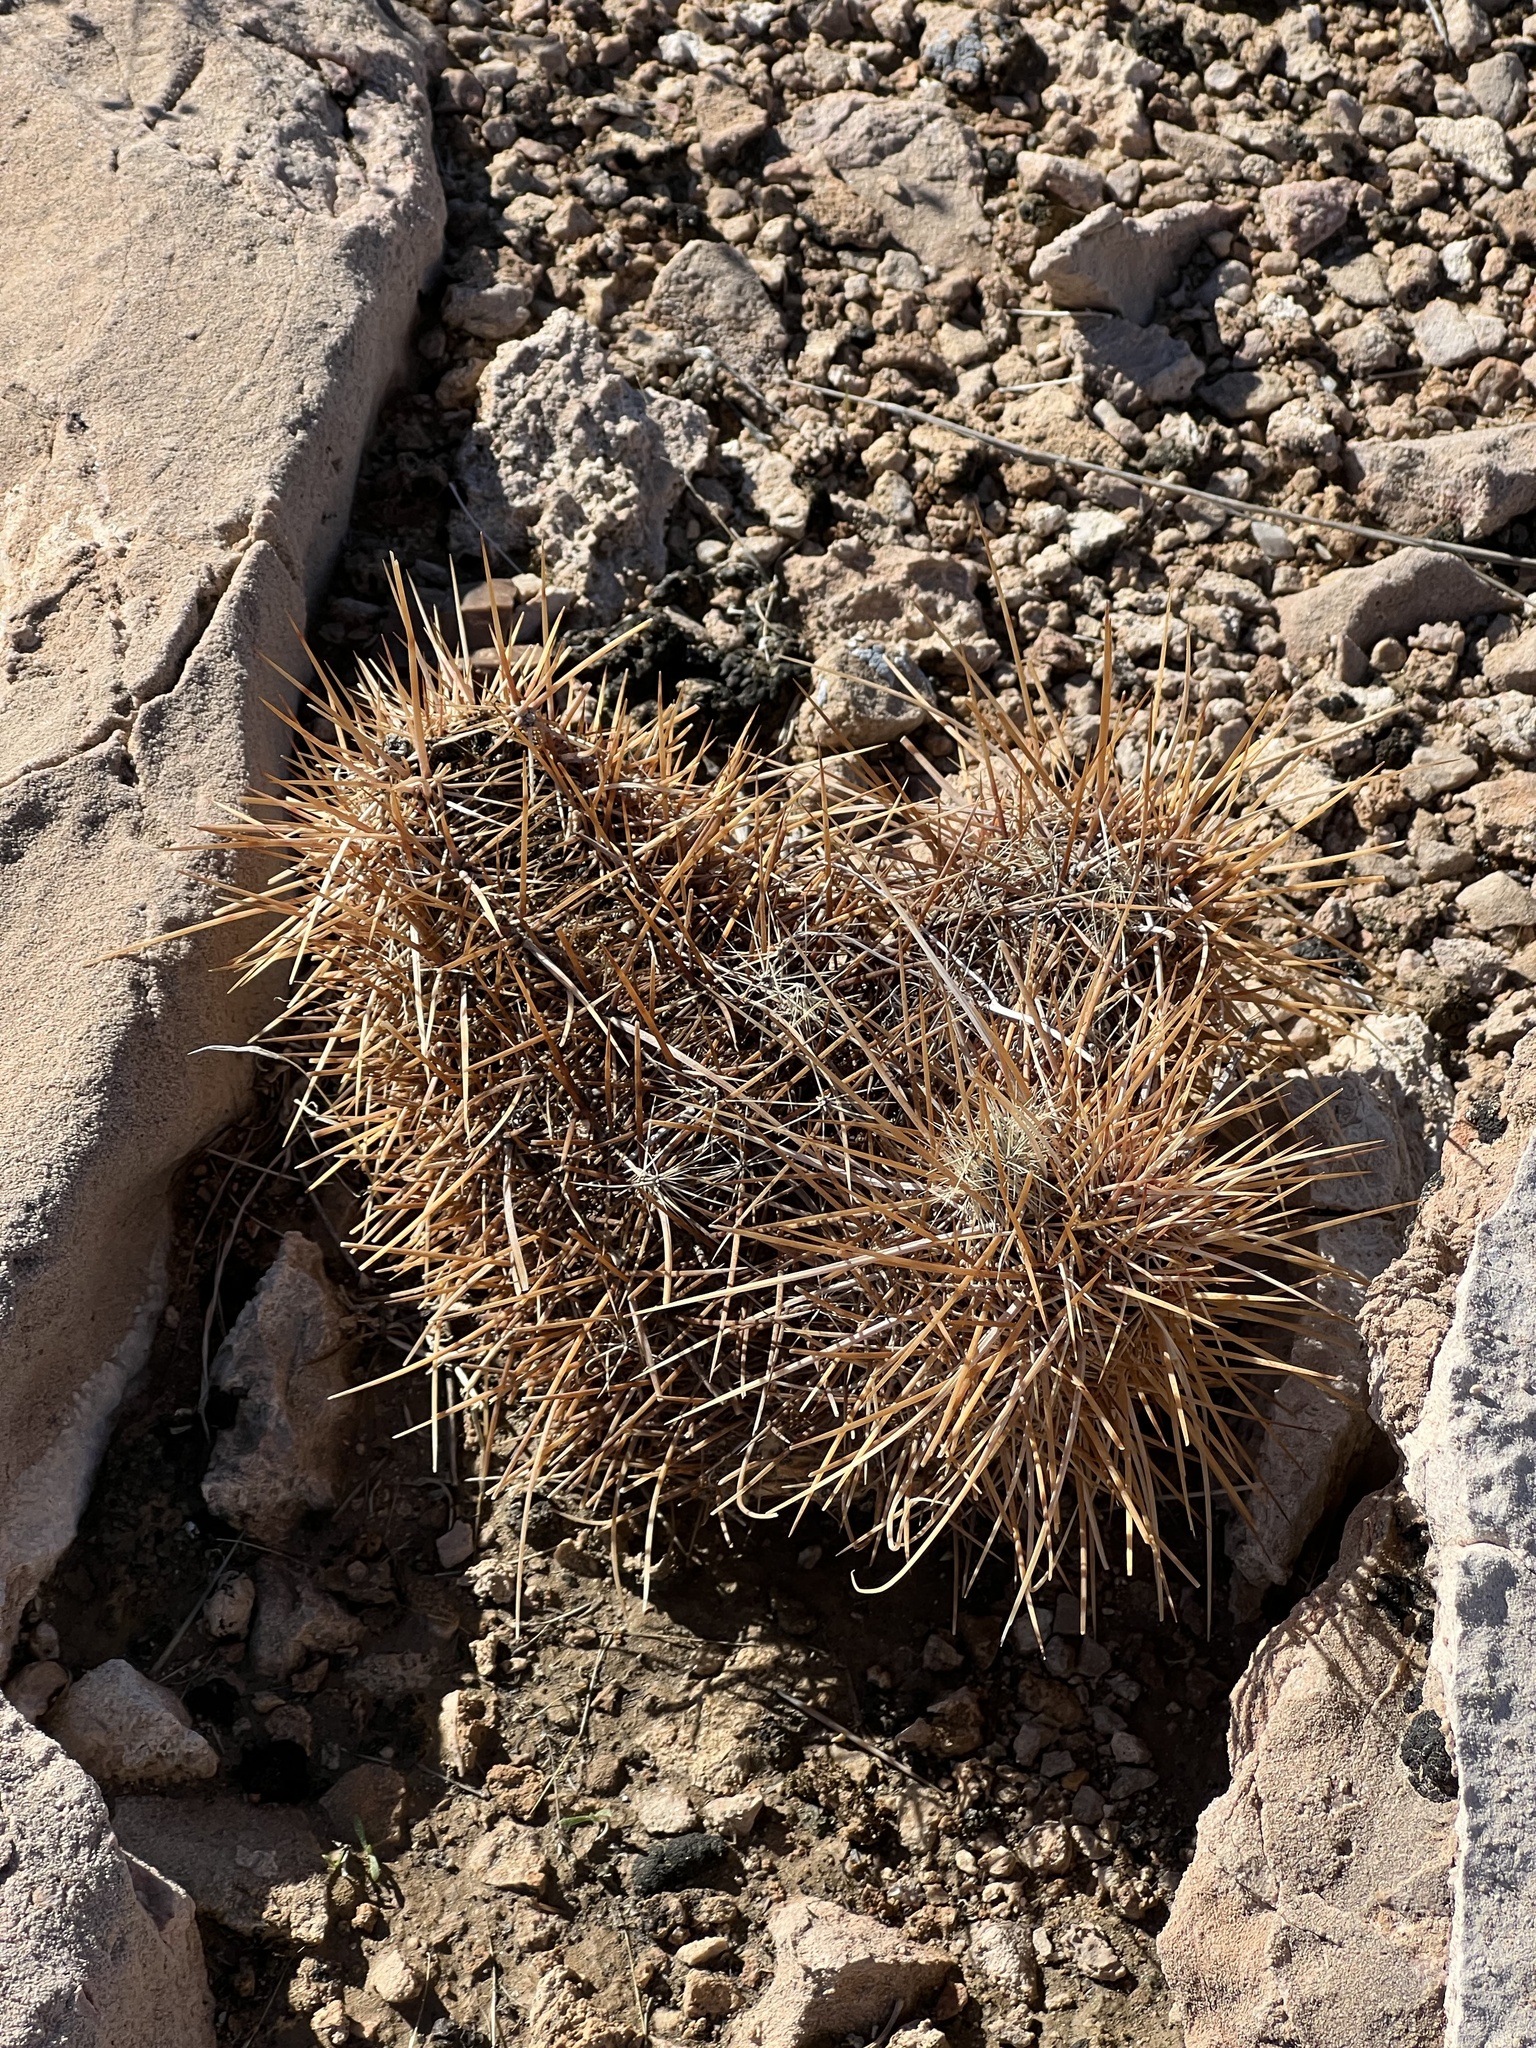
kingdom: Plantae
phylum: Tracheophyta
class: Magnoliopsida
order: Caryophyllales
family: Cactaceae
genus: Echinocereus
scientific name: Echinocereus engelmannii
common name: Engelmann's hedgehog cactus
